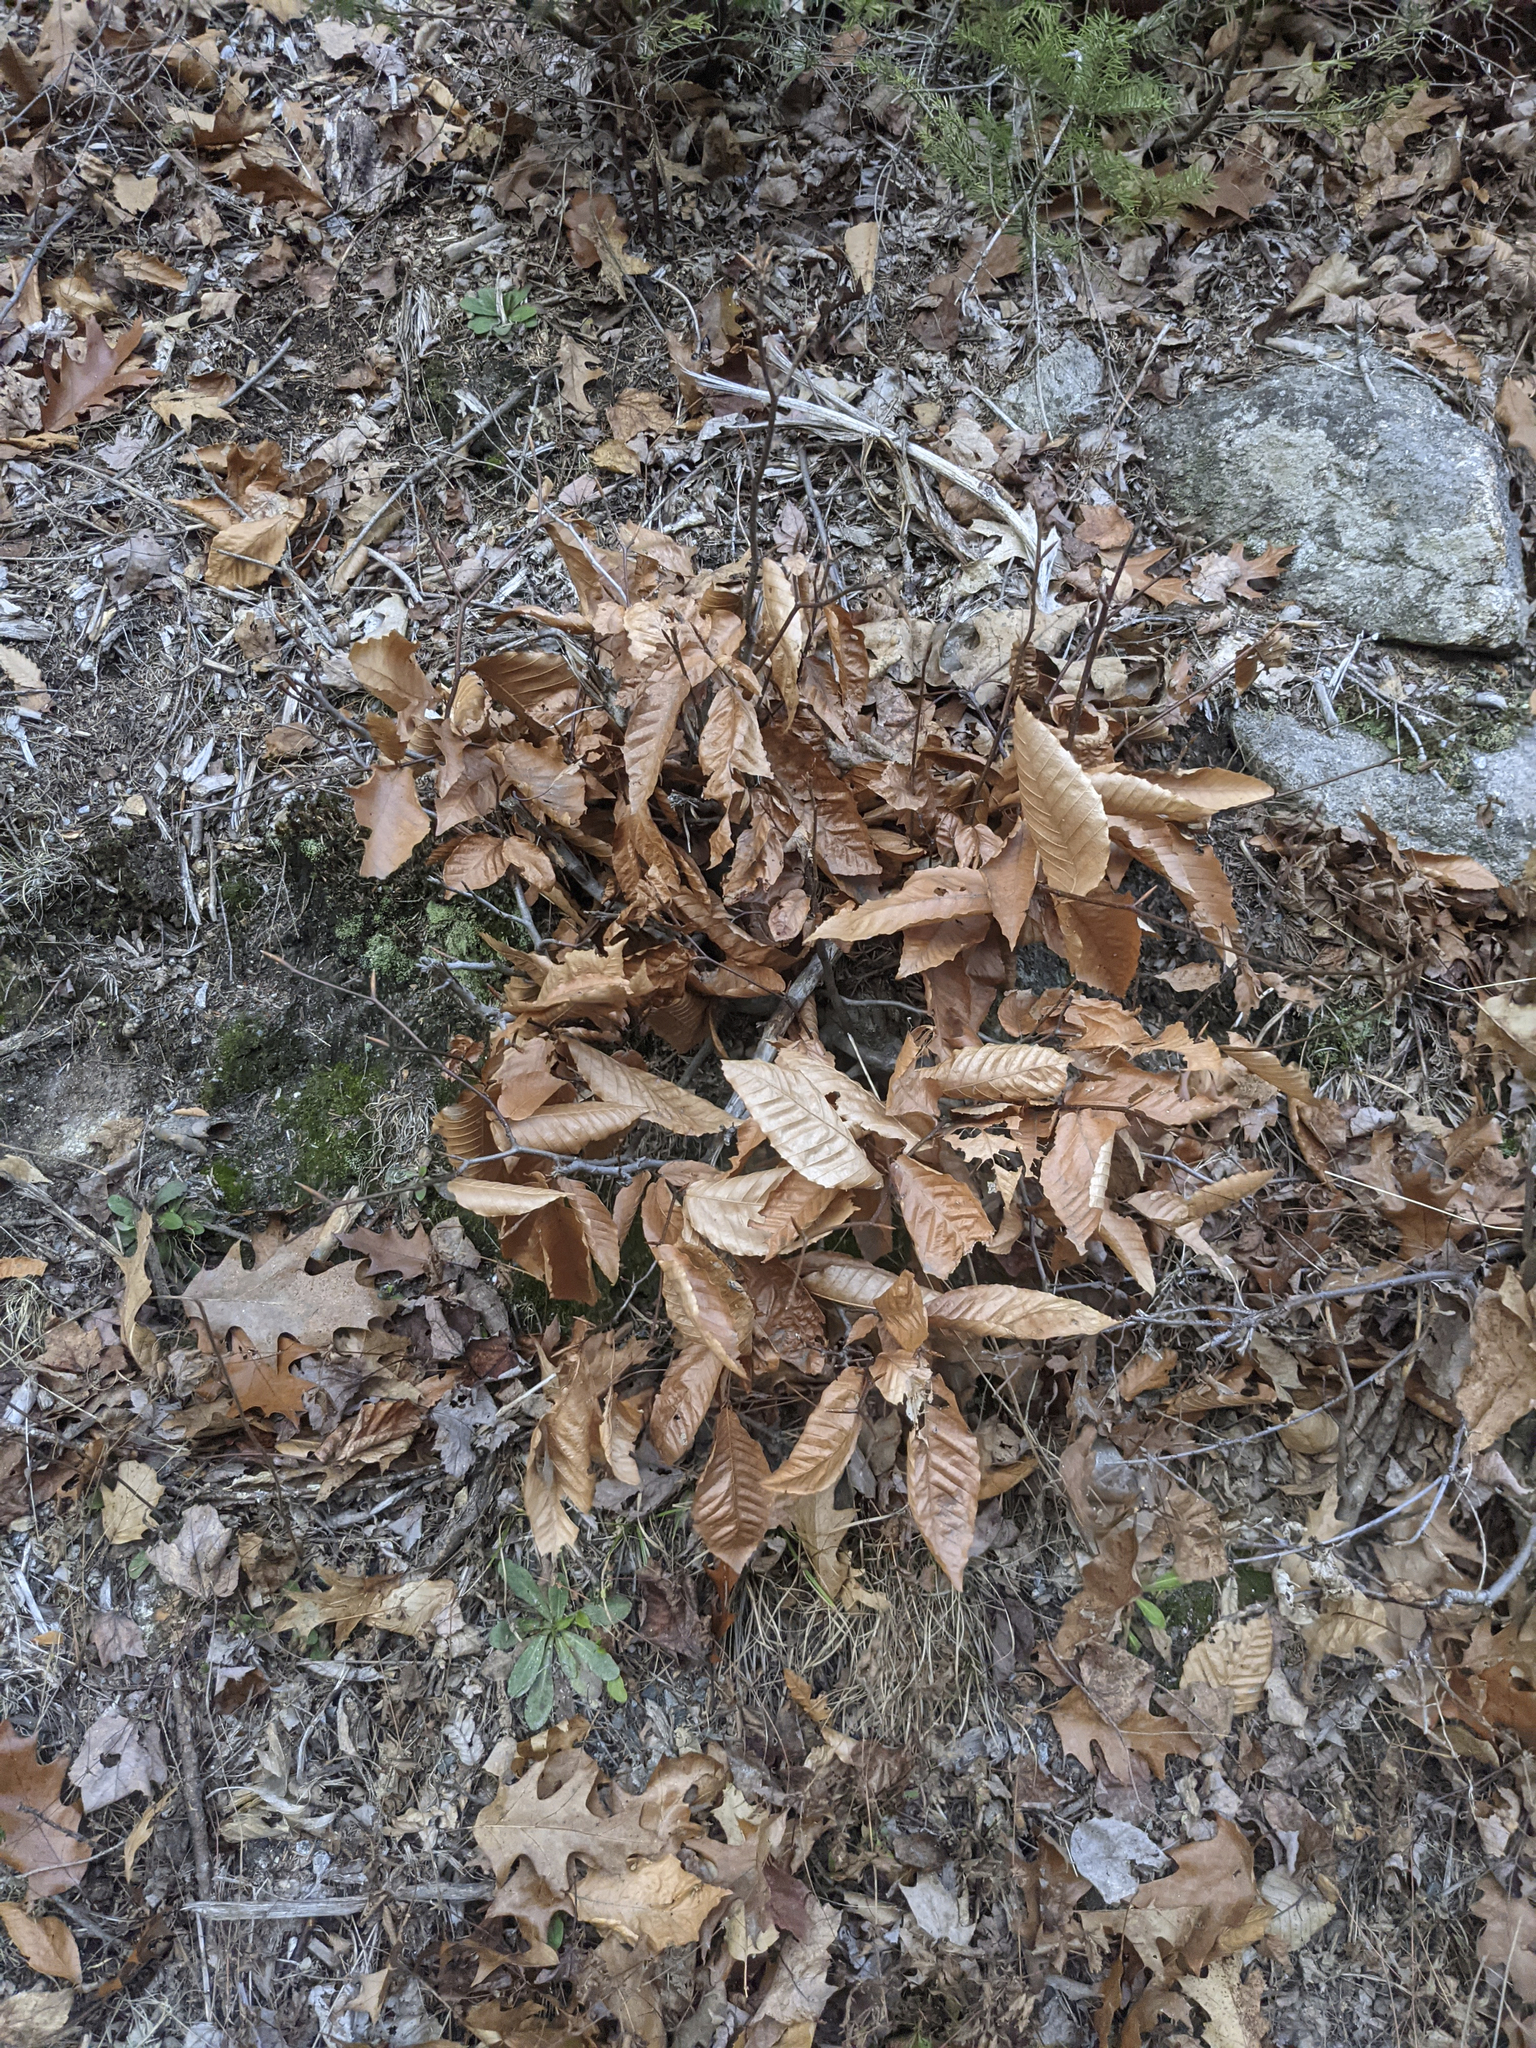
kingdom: Plantae
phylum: Tracheophyta
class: Magnoliopsida
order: Fagales
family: Fagaceae
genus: Fagus
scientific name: Fagus grandifolia
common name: American beech
